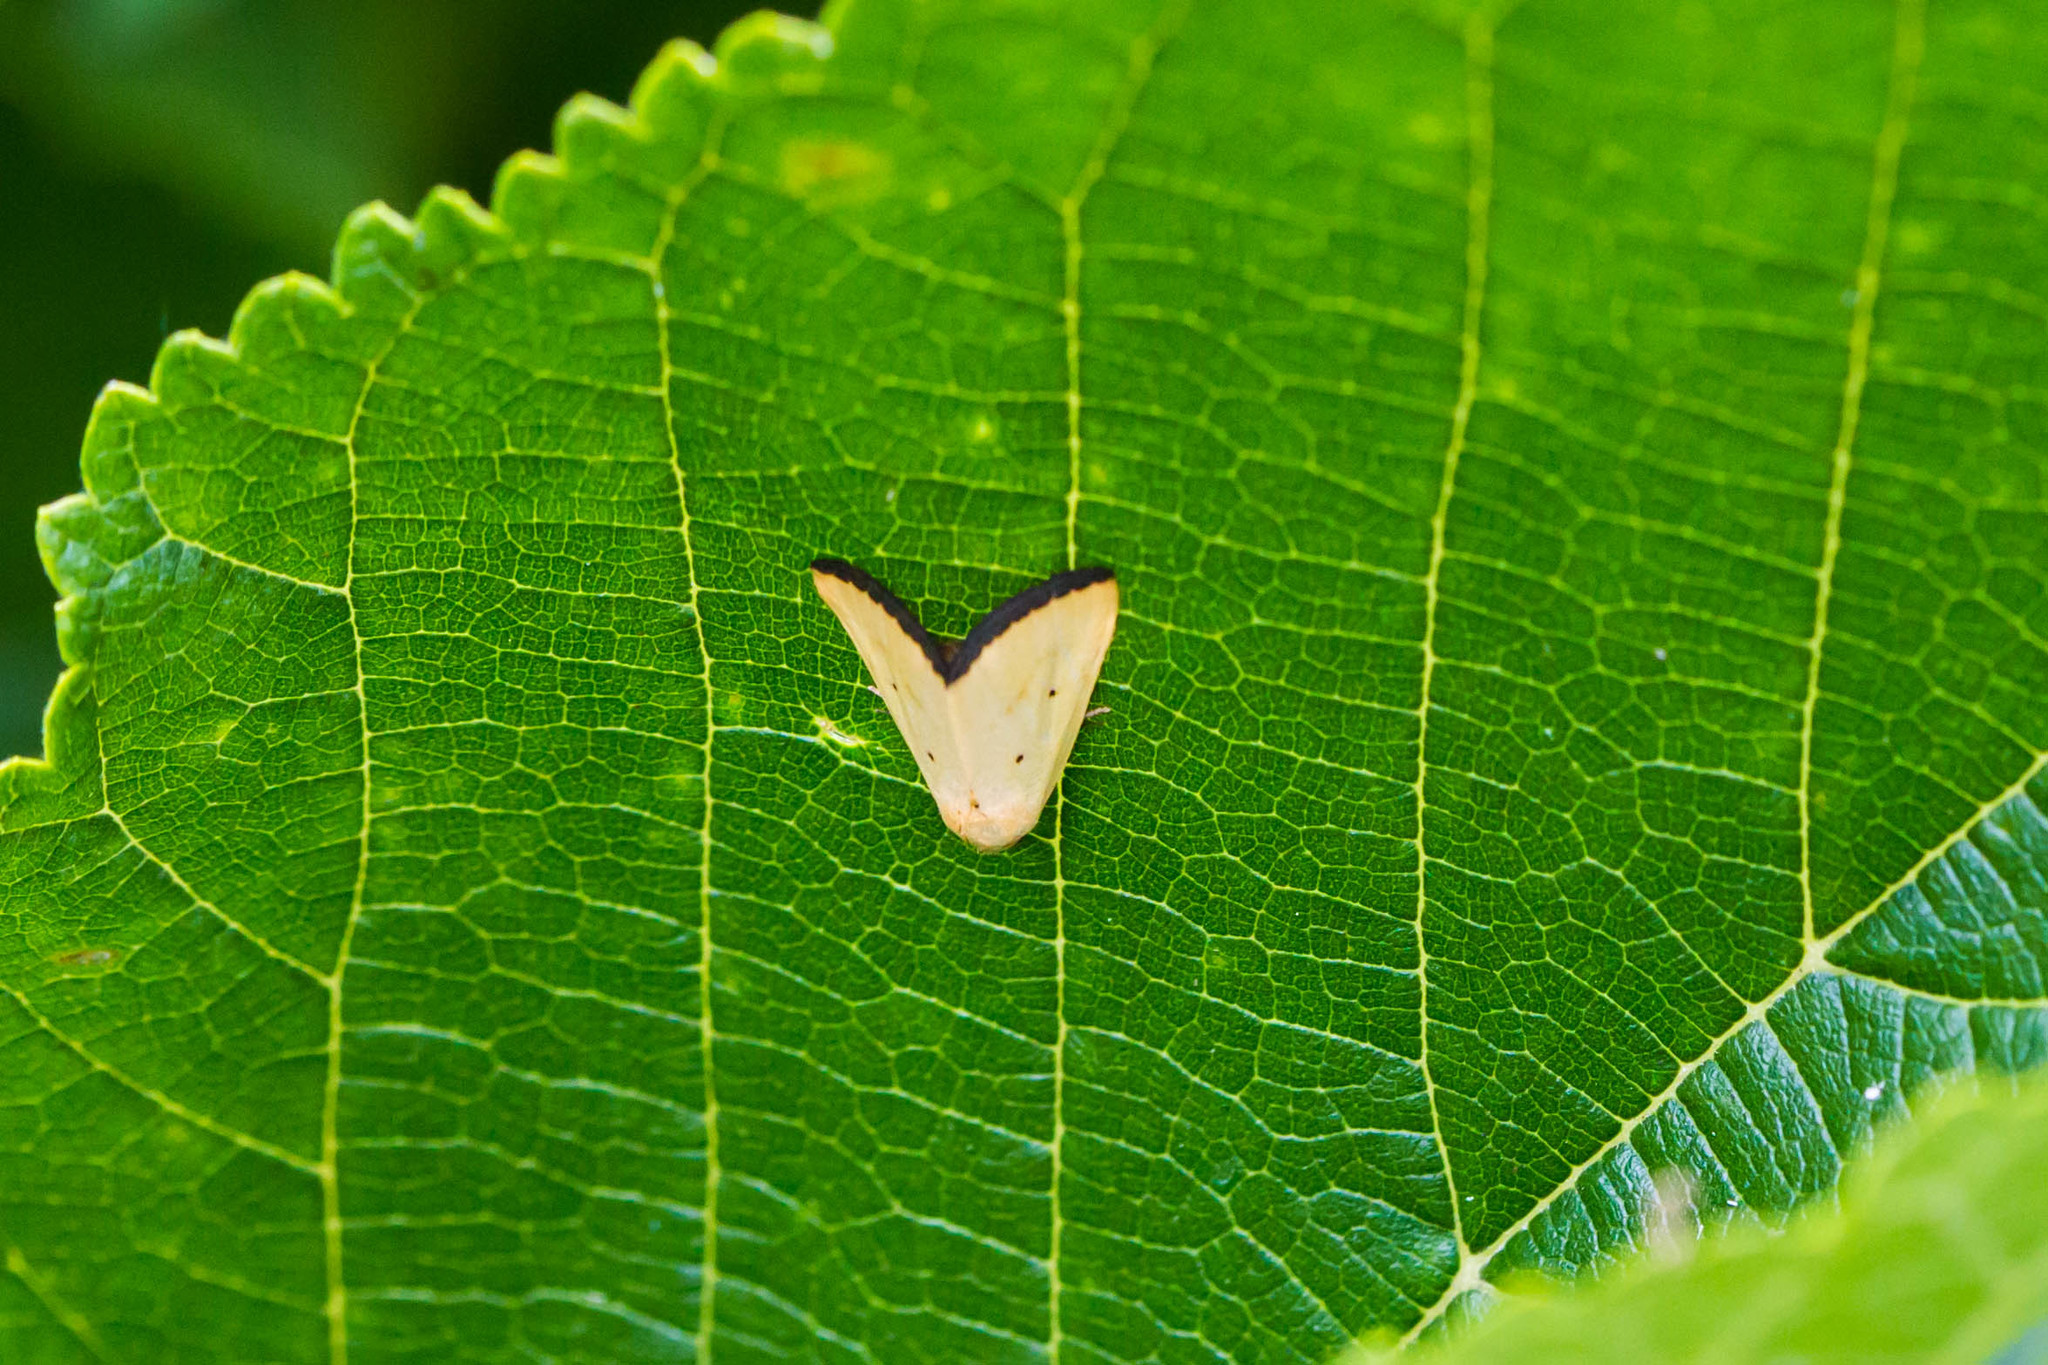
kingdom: Animalia
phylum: Arthropoda
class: Insecta
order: Lepidoptera
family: Noctuidae
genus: Marimatha
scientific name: Marimatha nigrofimbria
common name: Black-bordered lemon moth
